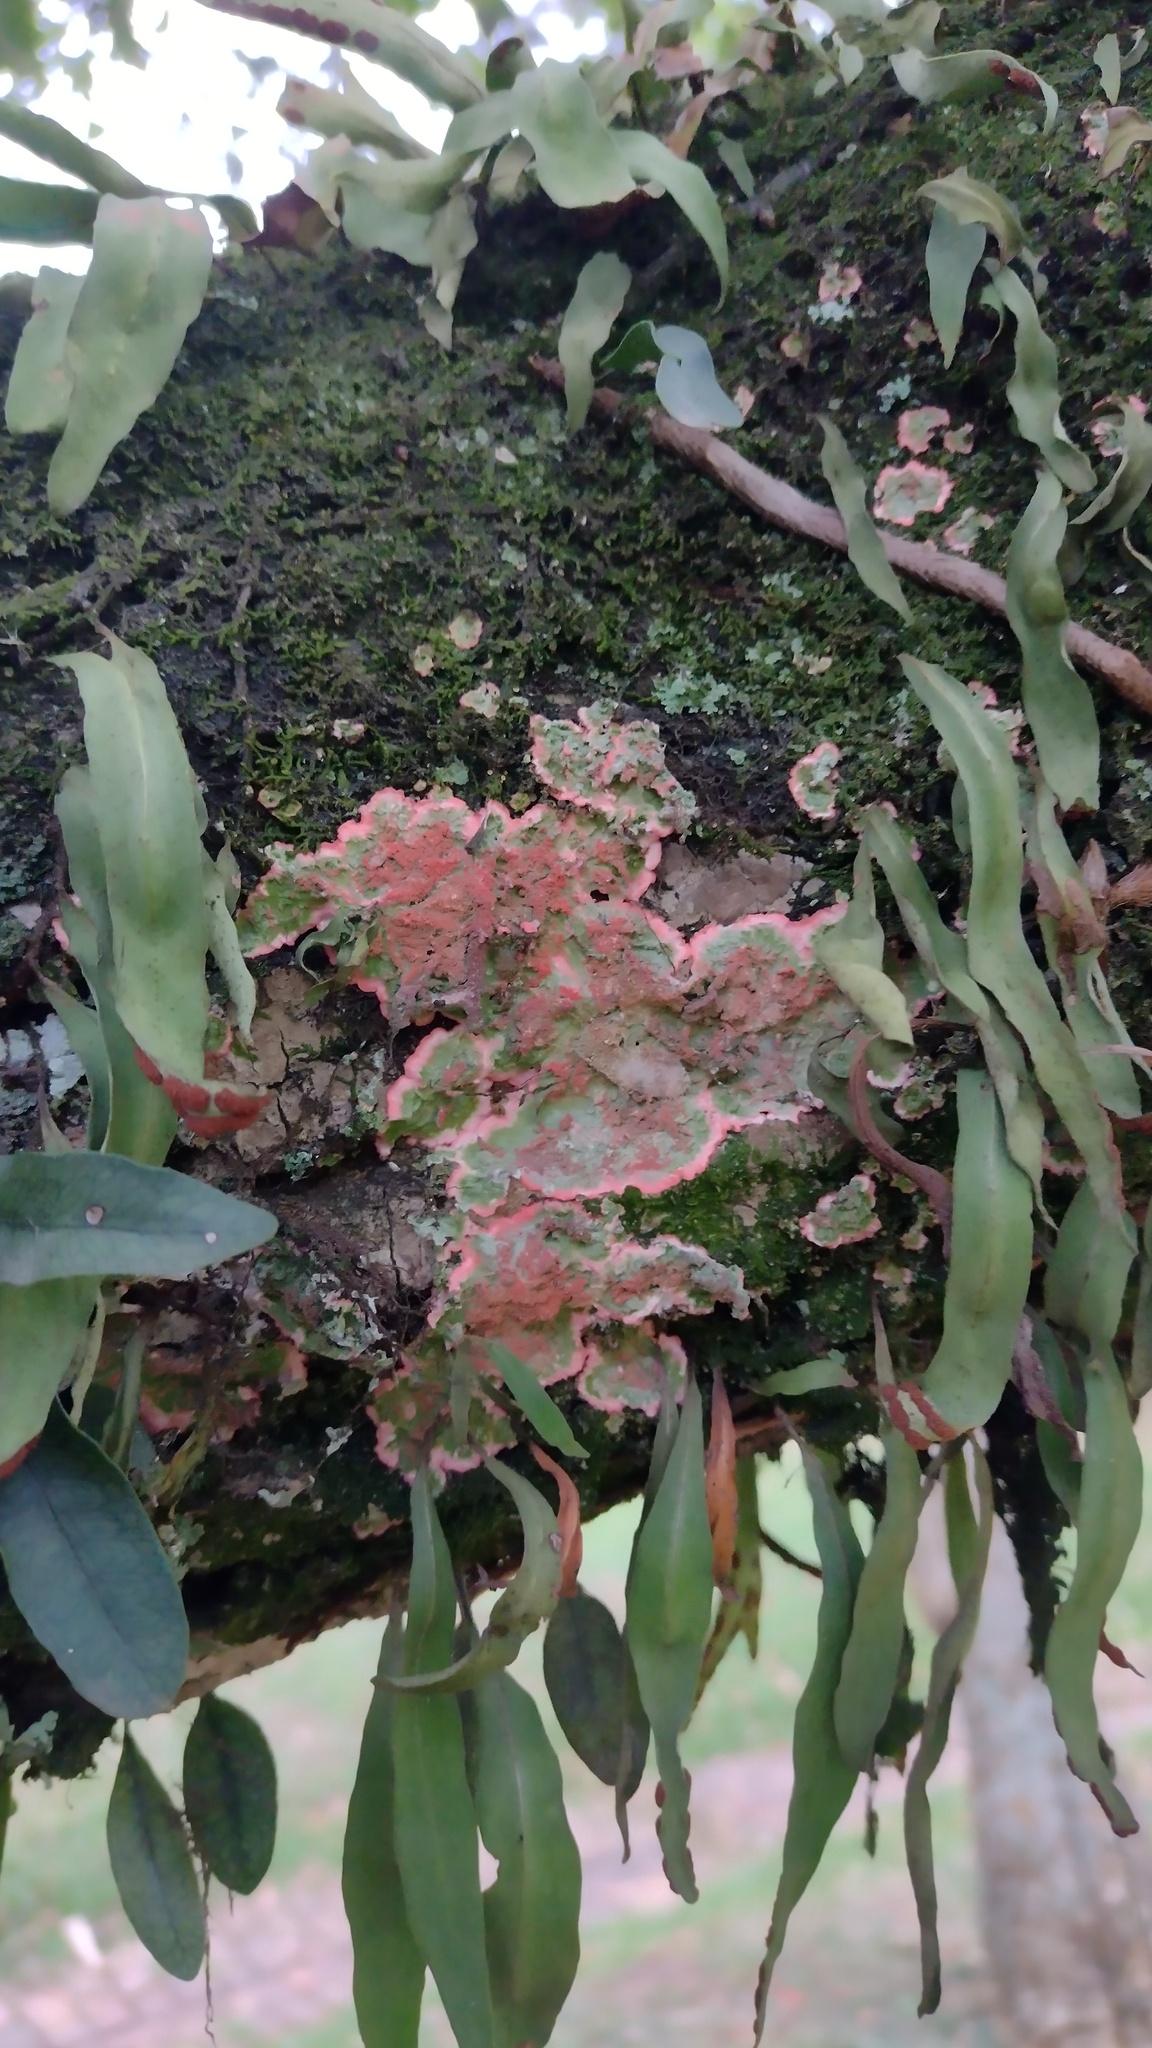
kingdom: Fungi
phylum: Ascomycota
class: Arthoniomycetes
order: Arthoniales
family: Arthoniaceae
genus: Herpothallon
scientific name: Herpothallon rubrocinctum
